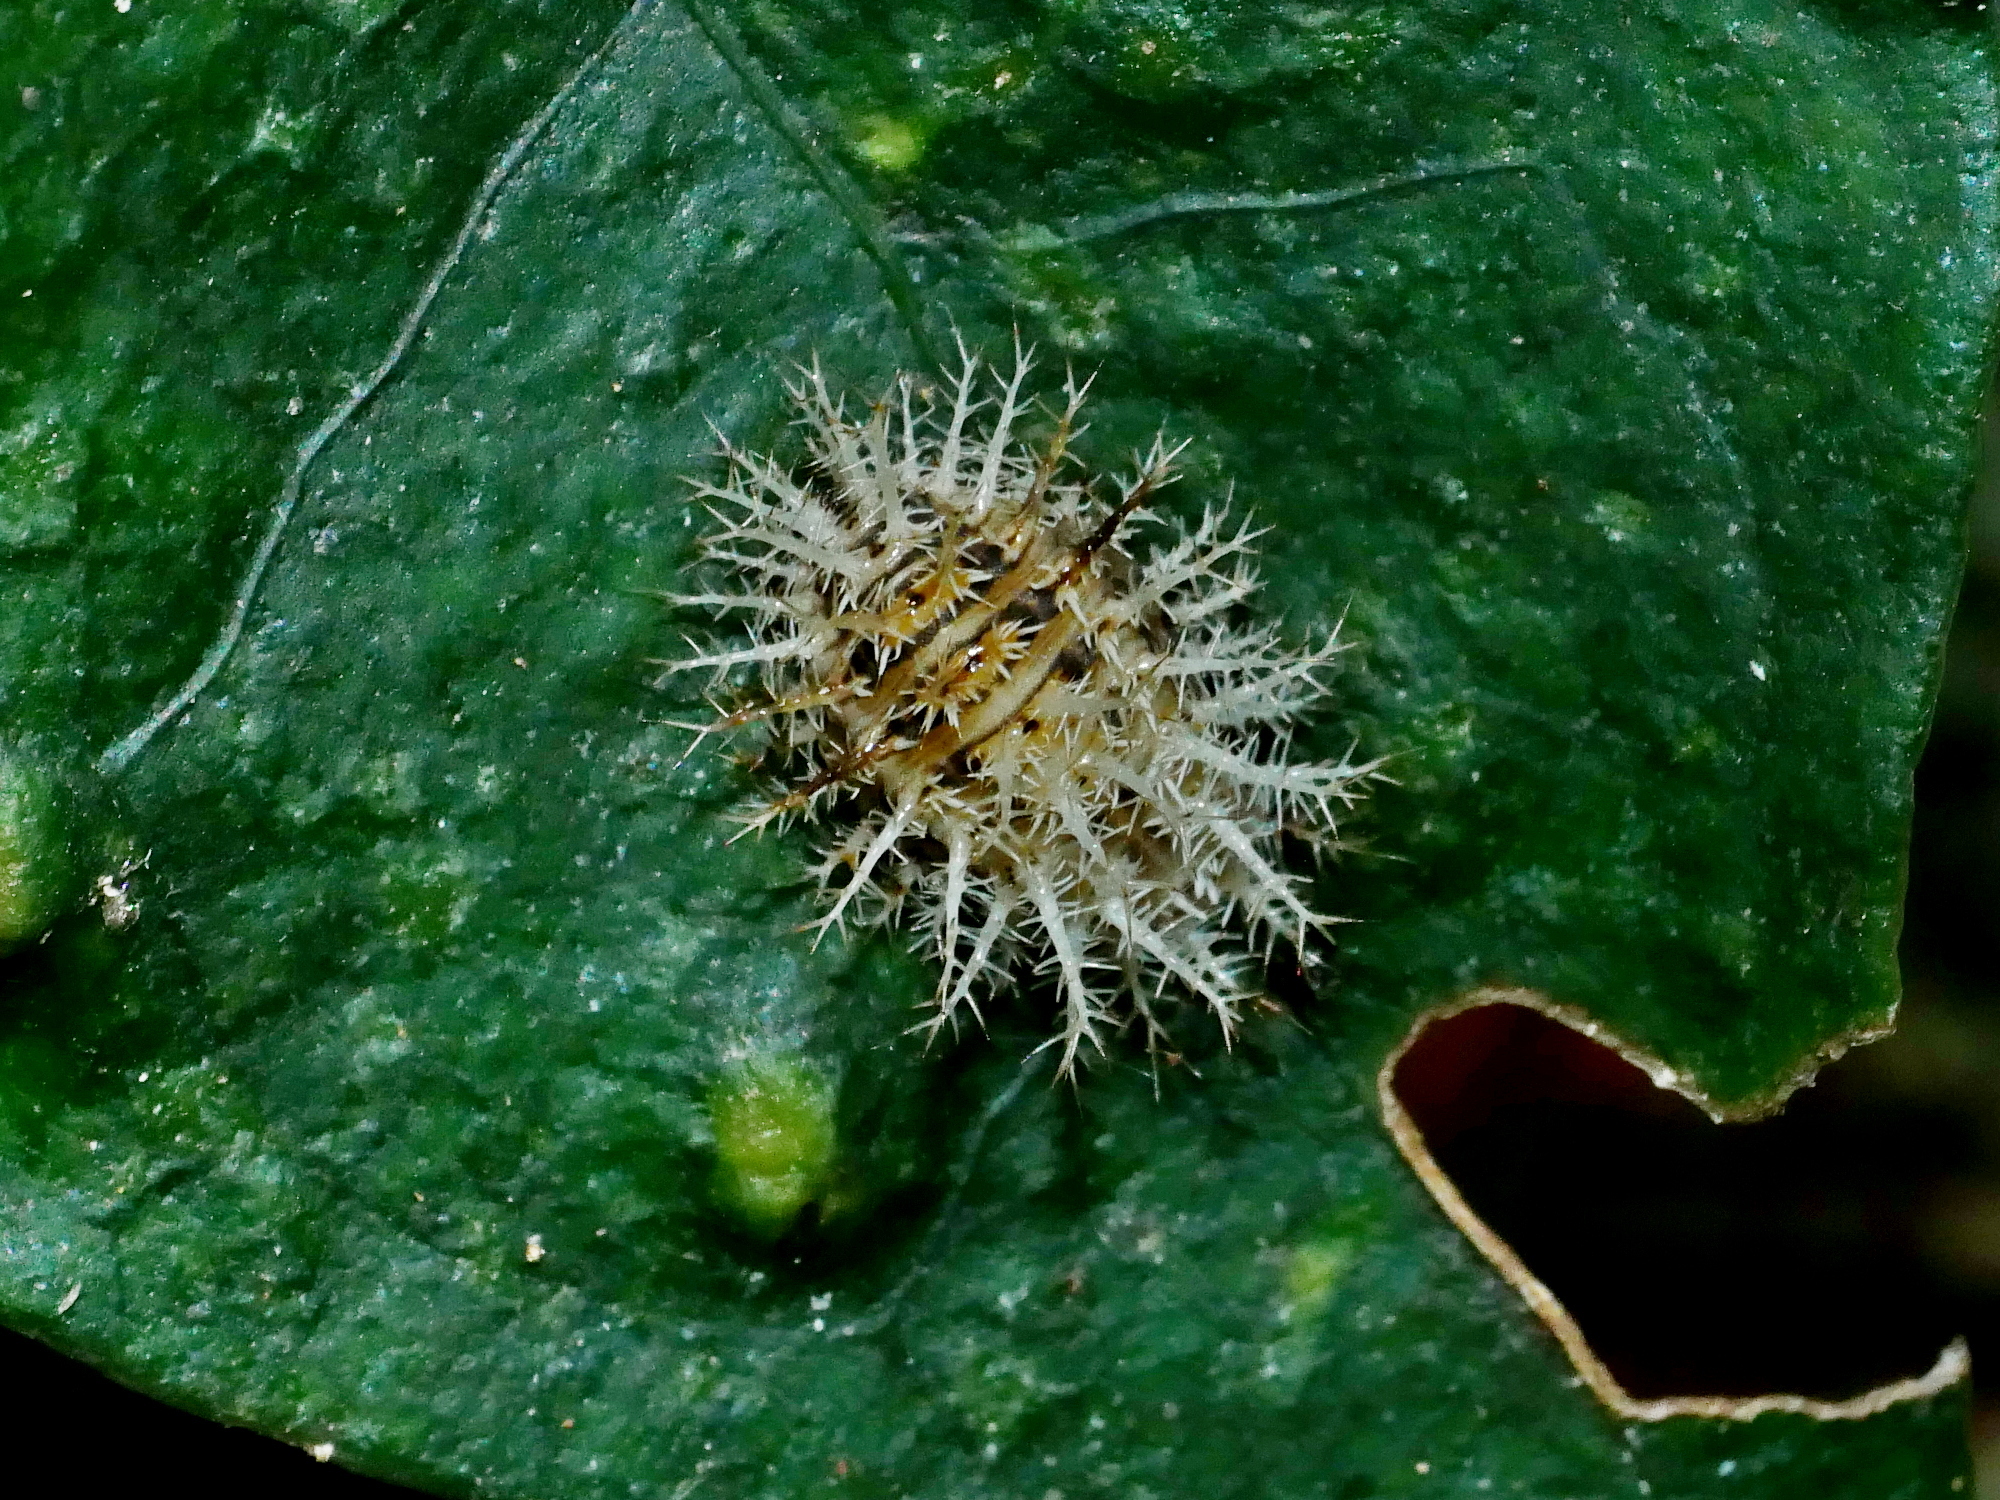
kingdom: Animalia
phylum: Arthropoda
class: Insecta
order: Coleoptera
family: Coccinellidae
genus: Henosepilachna
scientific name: Henosepilachna pusillanima
